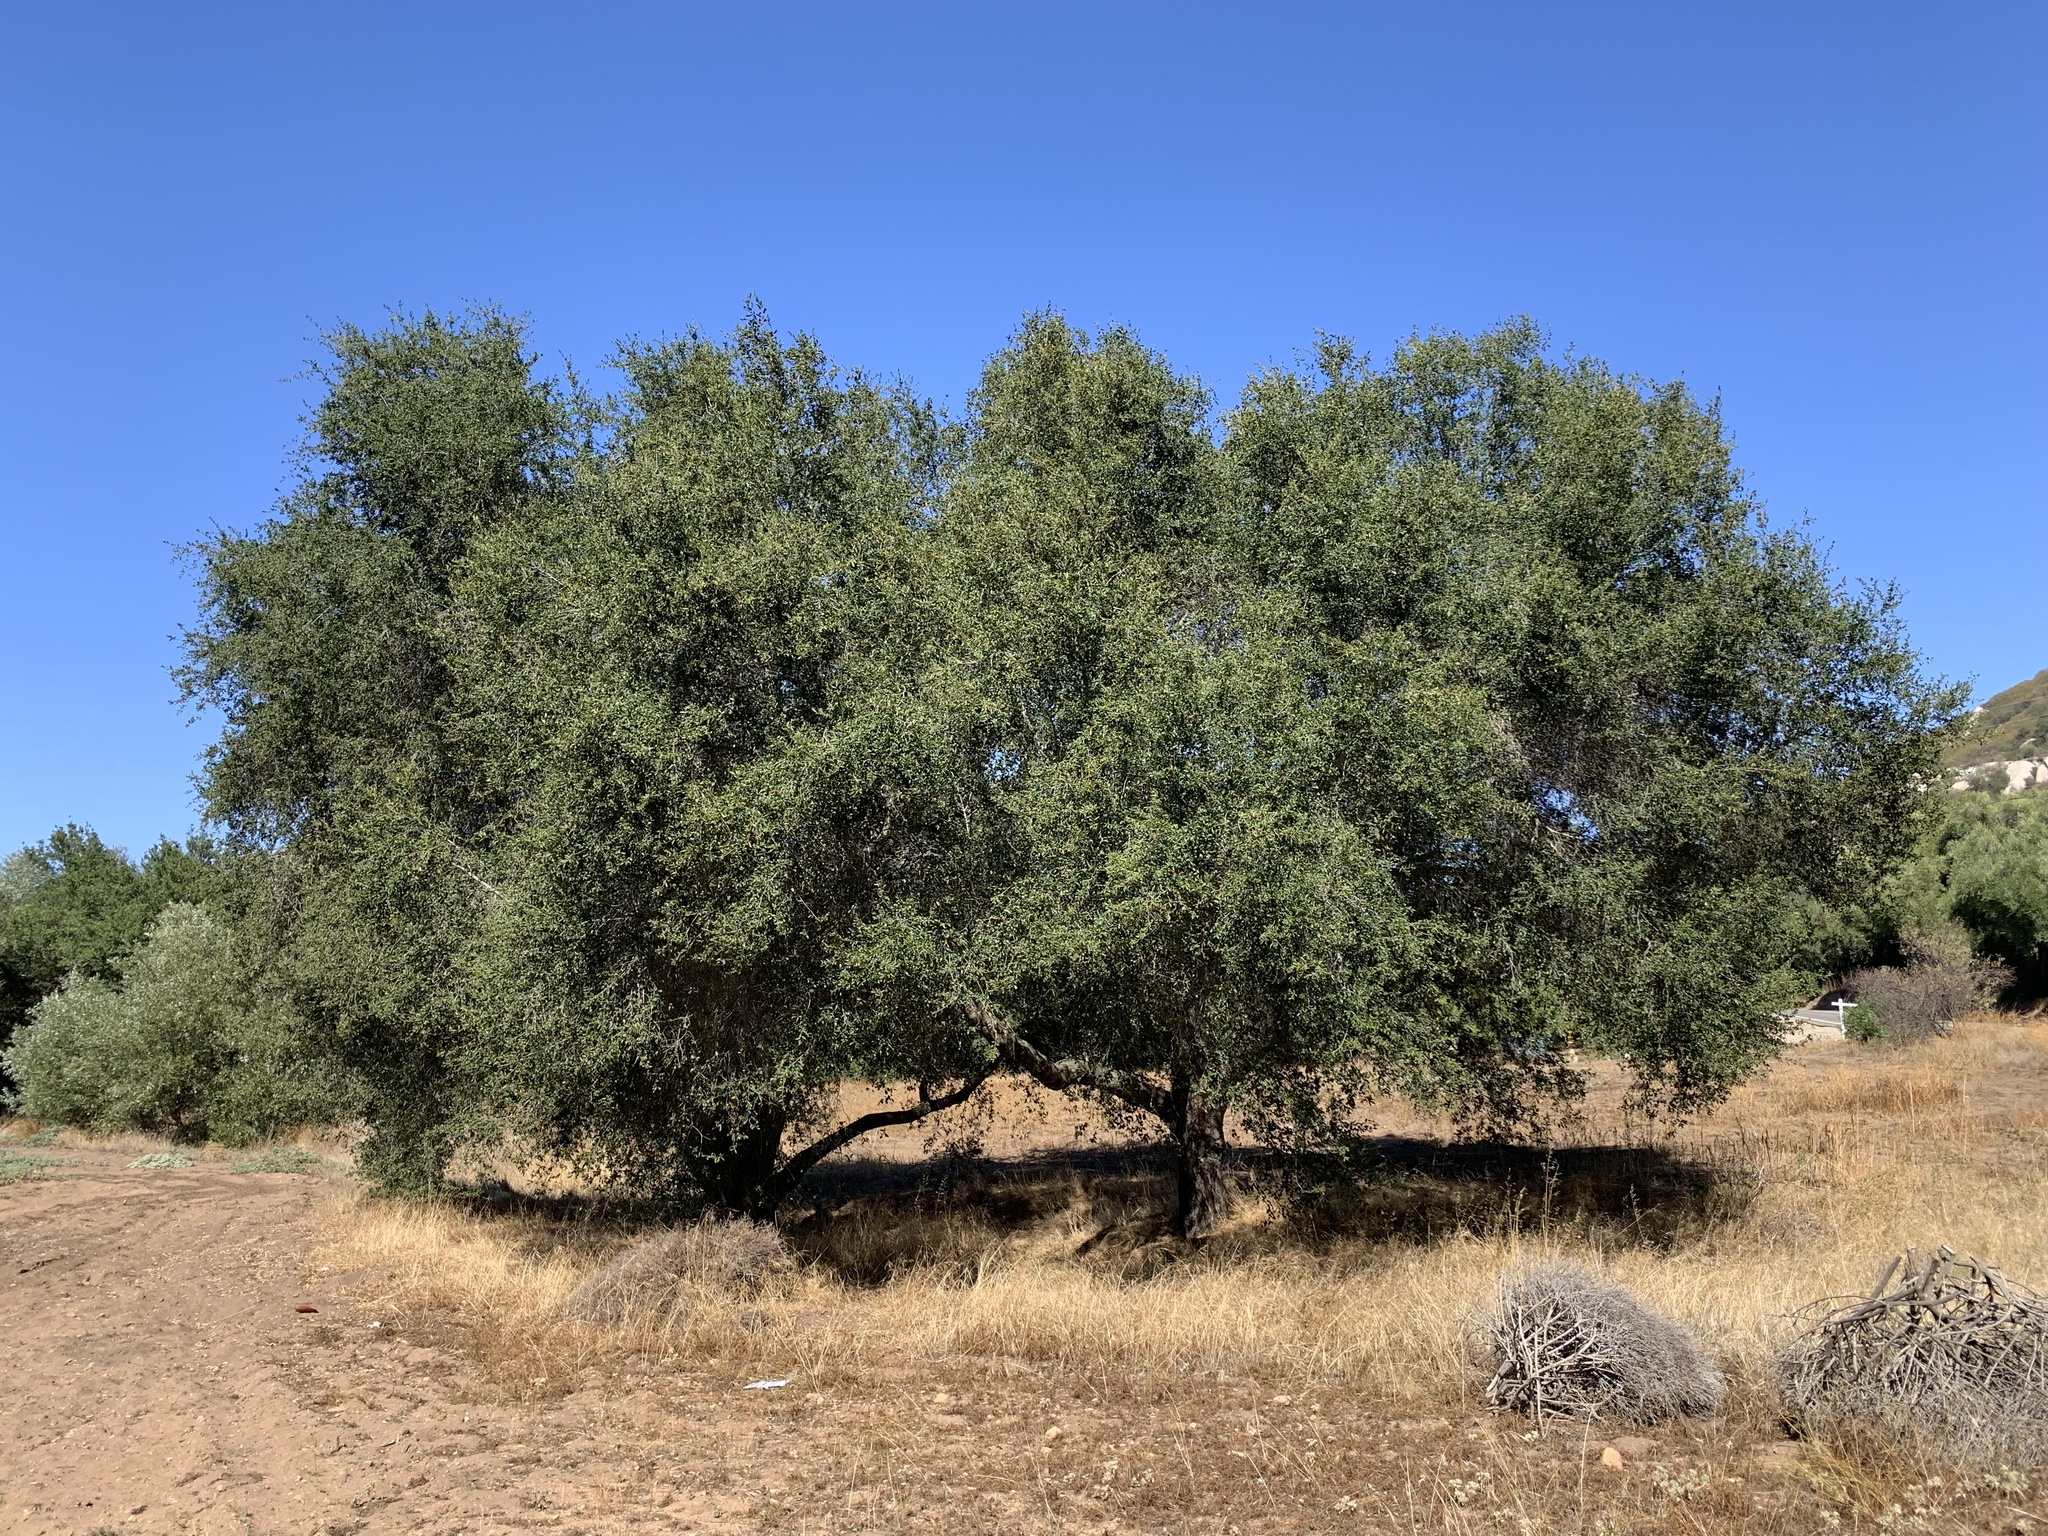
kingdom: Plantae
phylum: Tracheophyta
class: Magnoliopsida
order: Fagales
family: Fagaceae
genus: Quercus
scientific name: Quercus agrifolia
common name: California live oak
